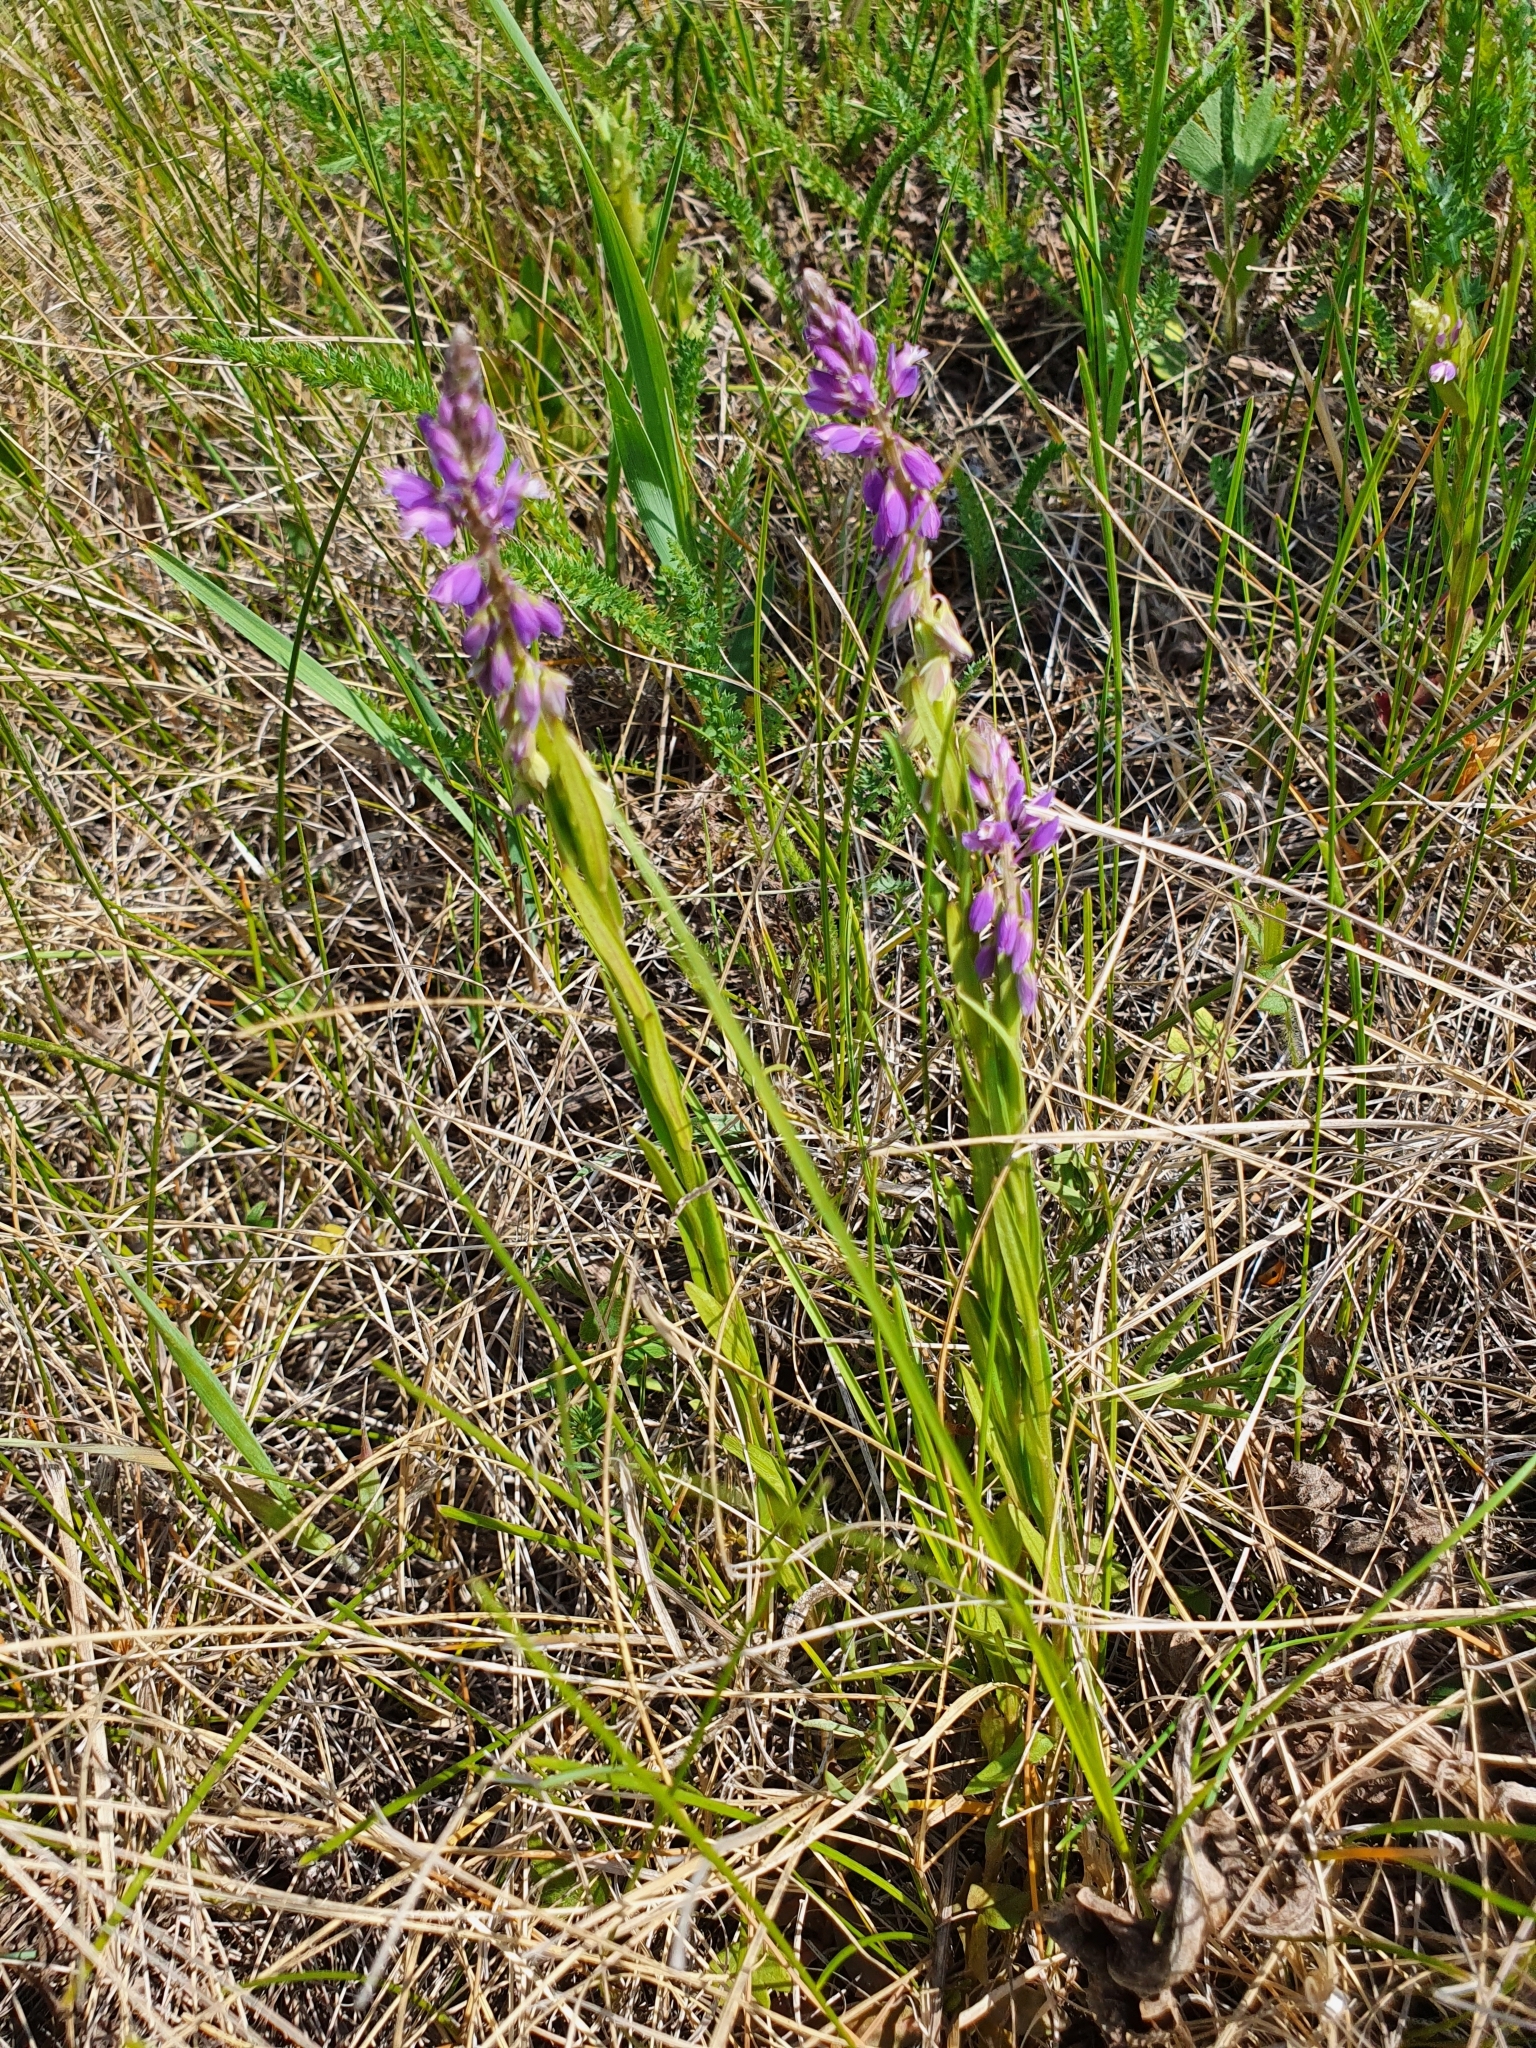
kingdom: Plantae
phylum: Tracheophyta
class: Magnoliopsida
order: Fabales
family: Polygalaceae
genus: Polygala
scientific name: Polygala comosa
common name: Tufted milkwort
